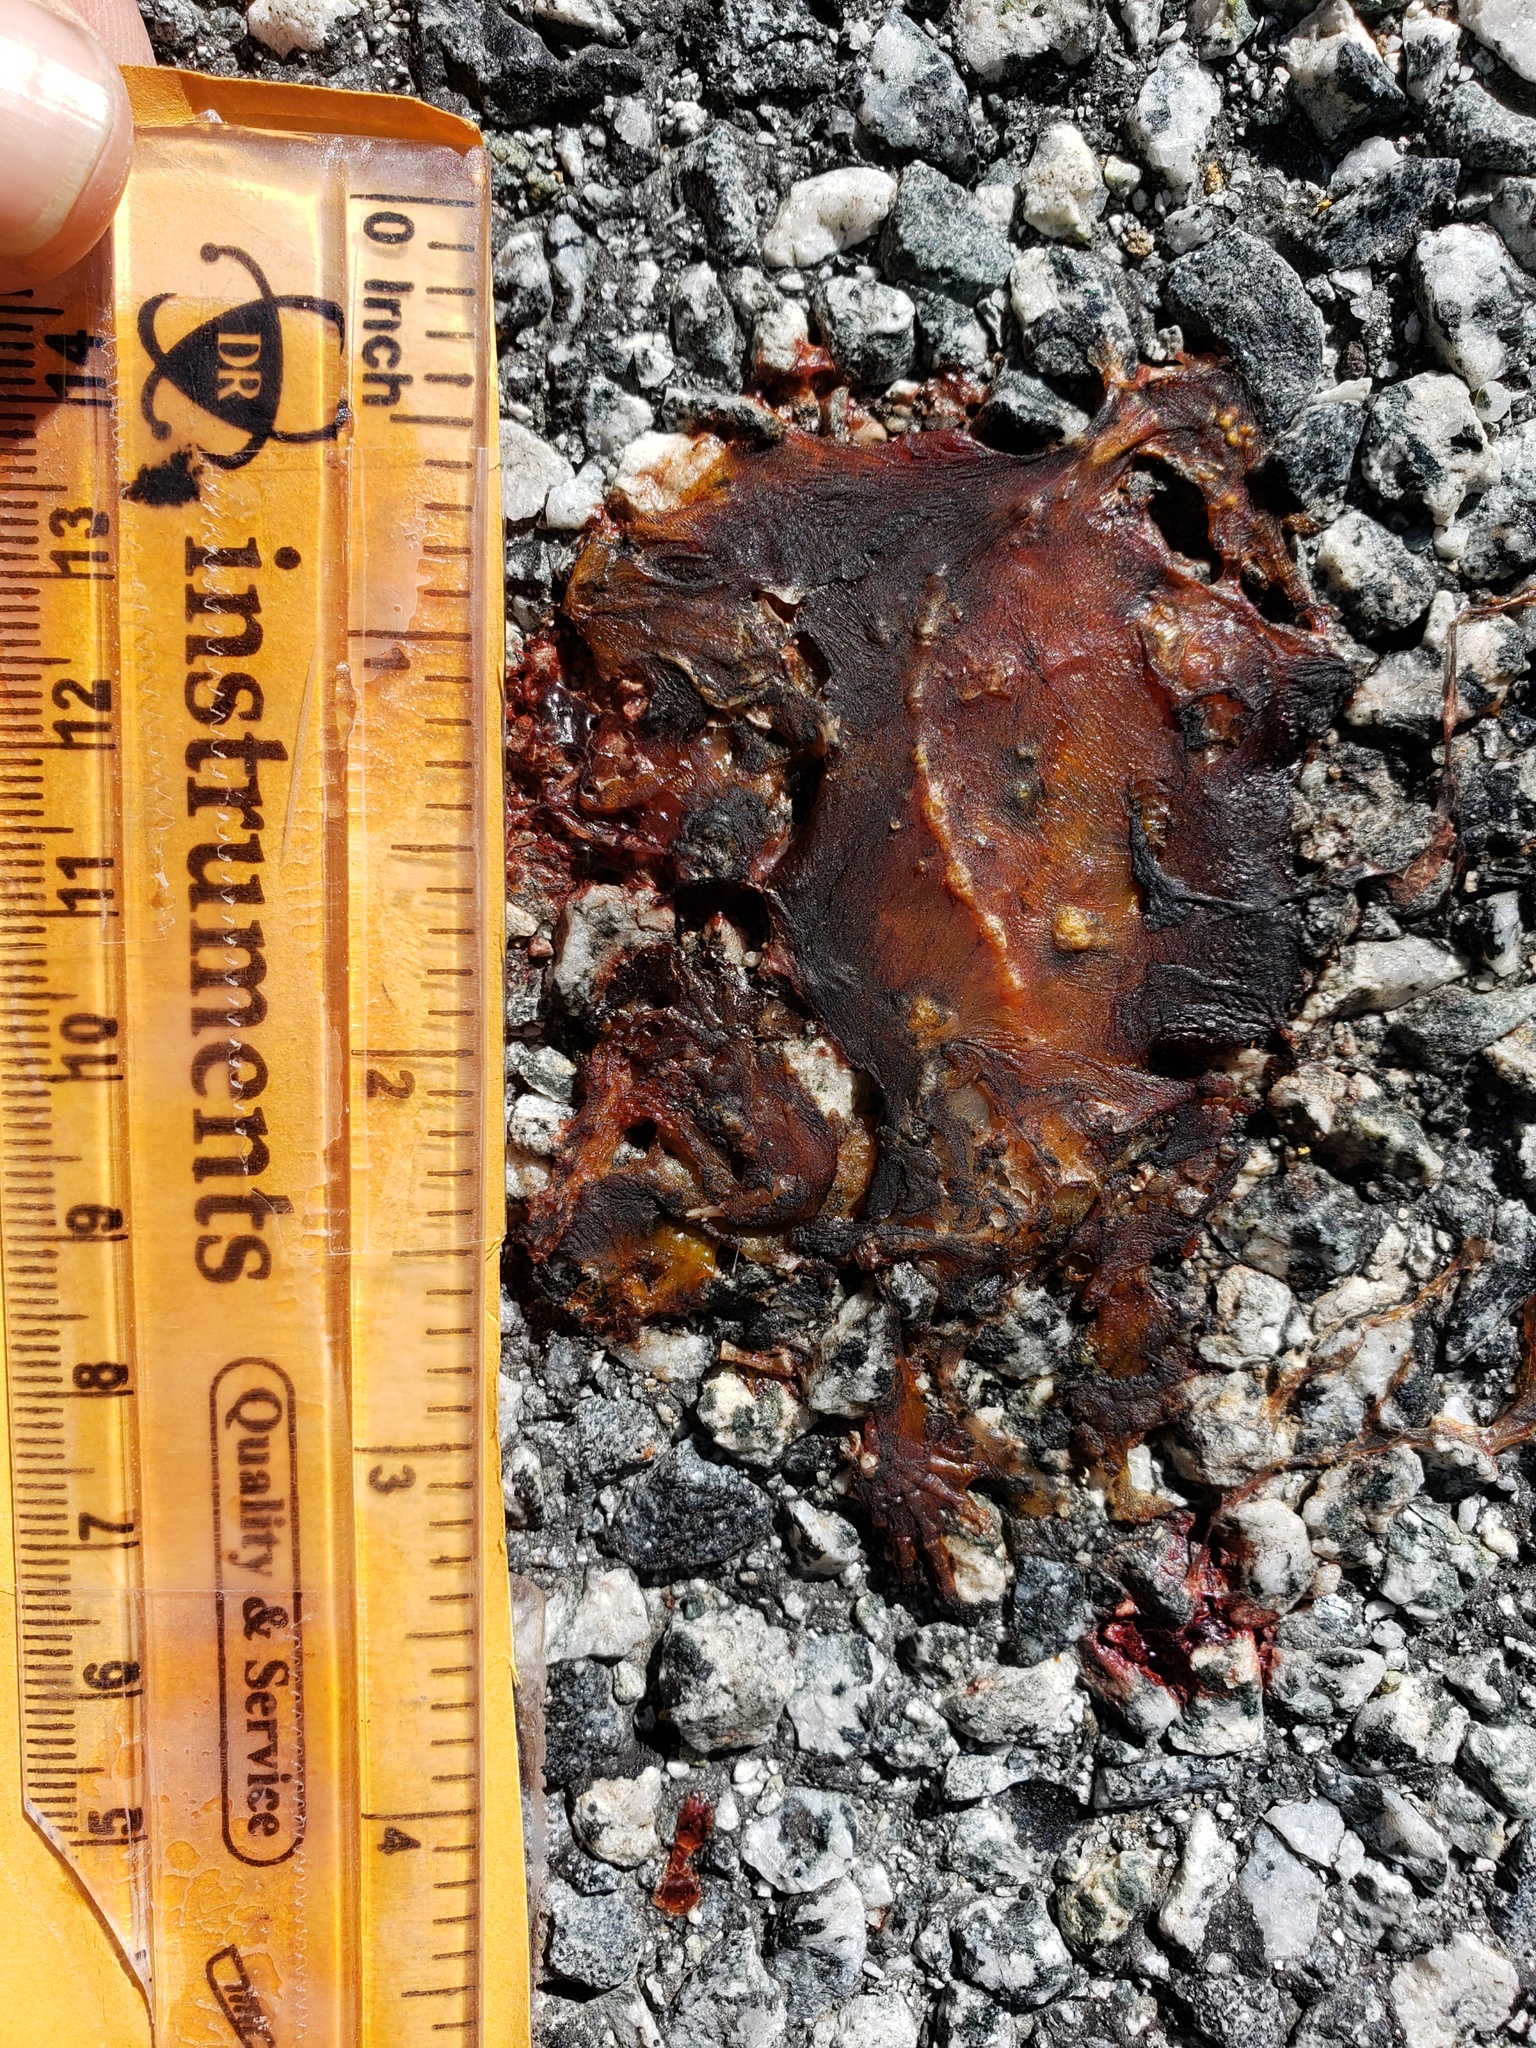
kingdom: Animalia
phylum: Chordata
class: Amphibia
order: Caudata
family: Salamandridae
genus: Taricha
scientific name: Taricha
